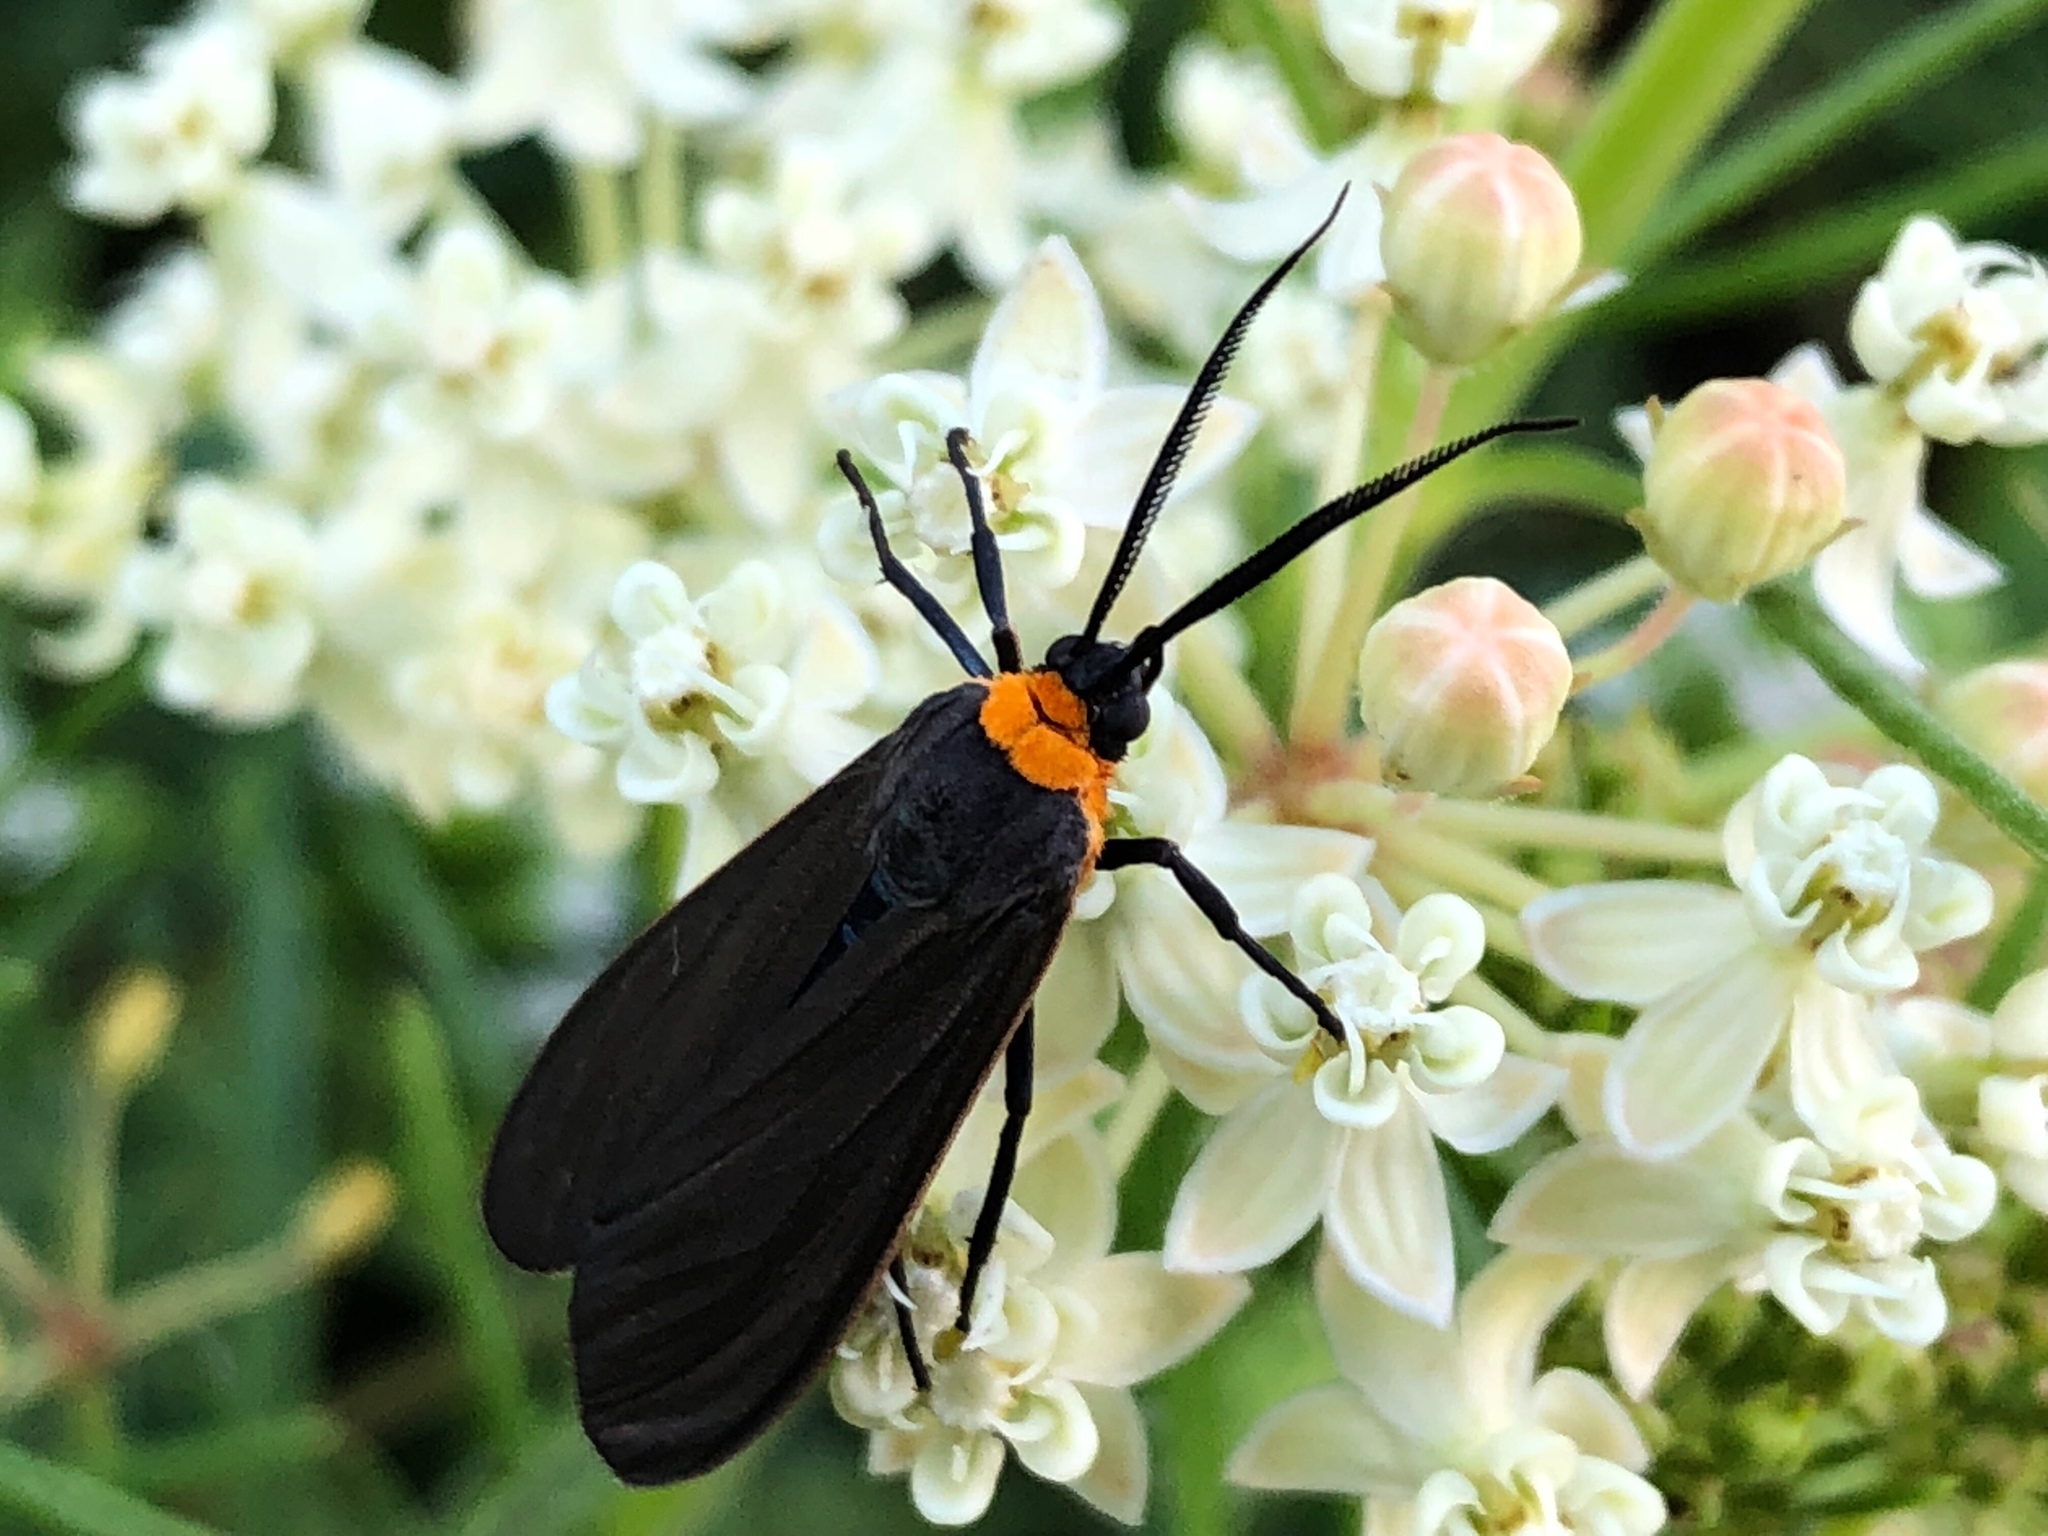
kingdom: Animalia
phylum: Arthropoda
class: Insecta
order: Lepidoptera
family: Erebidae
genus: Cisseps
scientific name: Cisseps fulvicollis
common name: Yellow-collared scape moth
